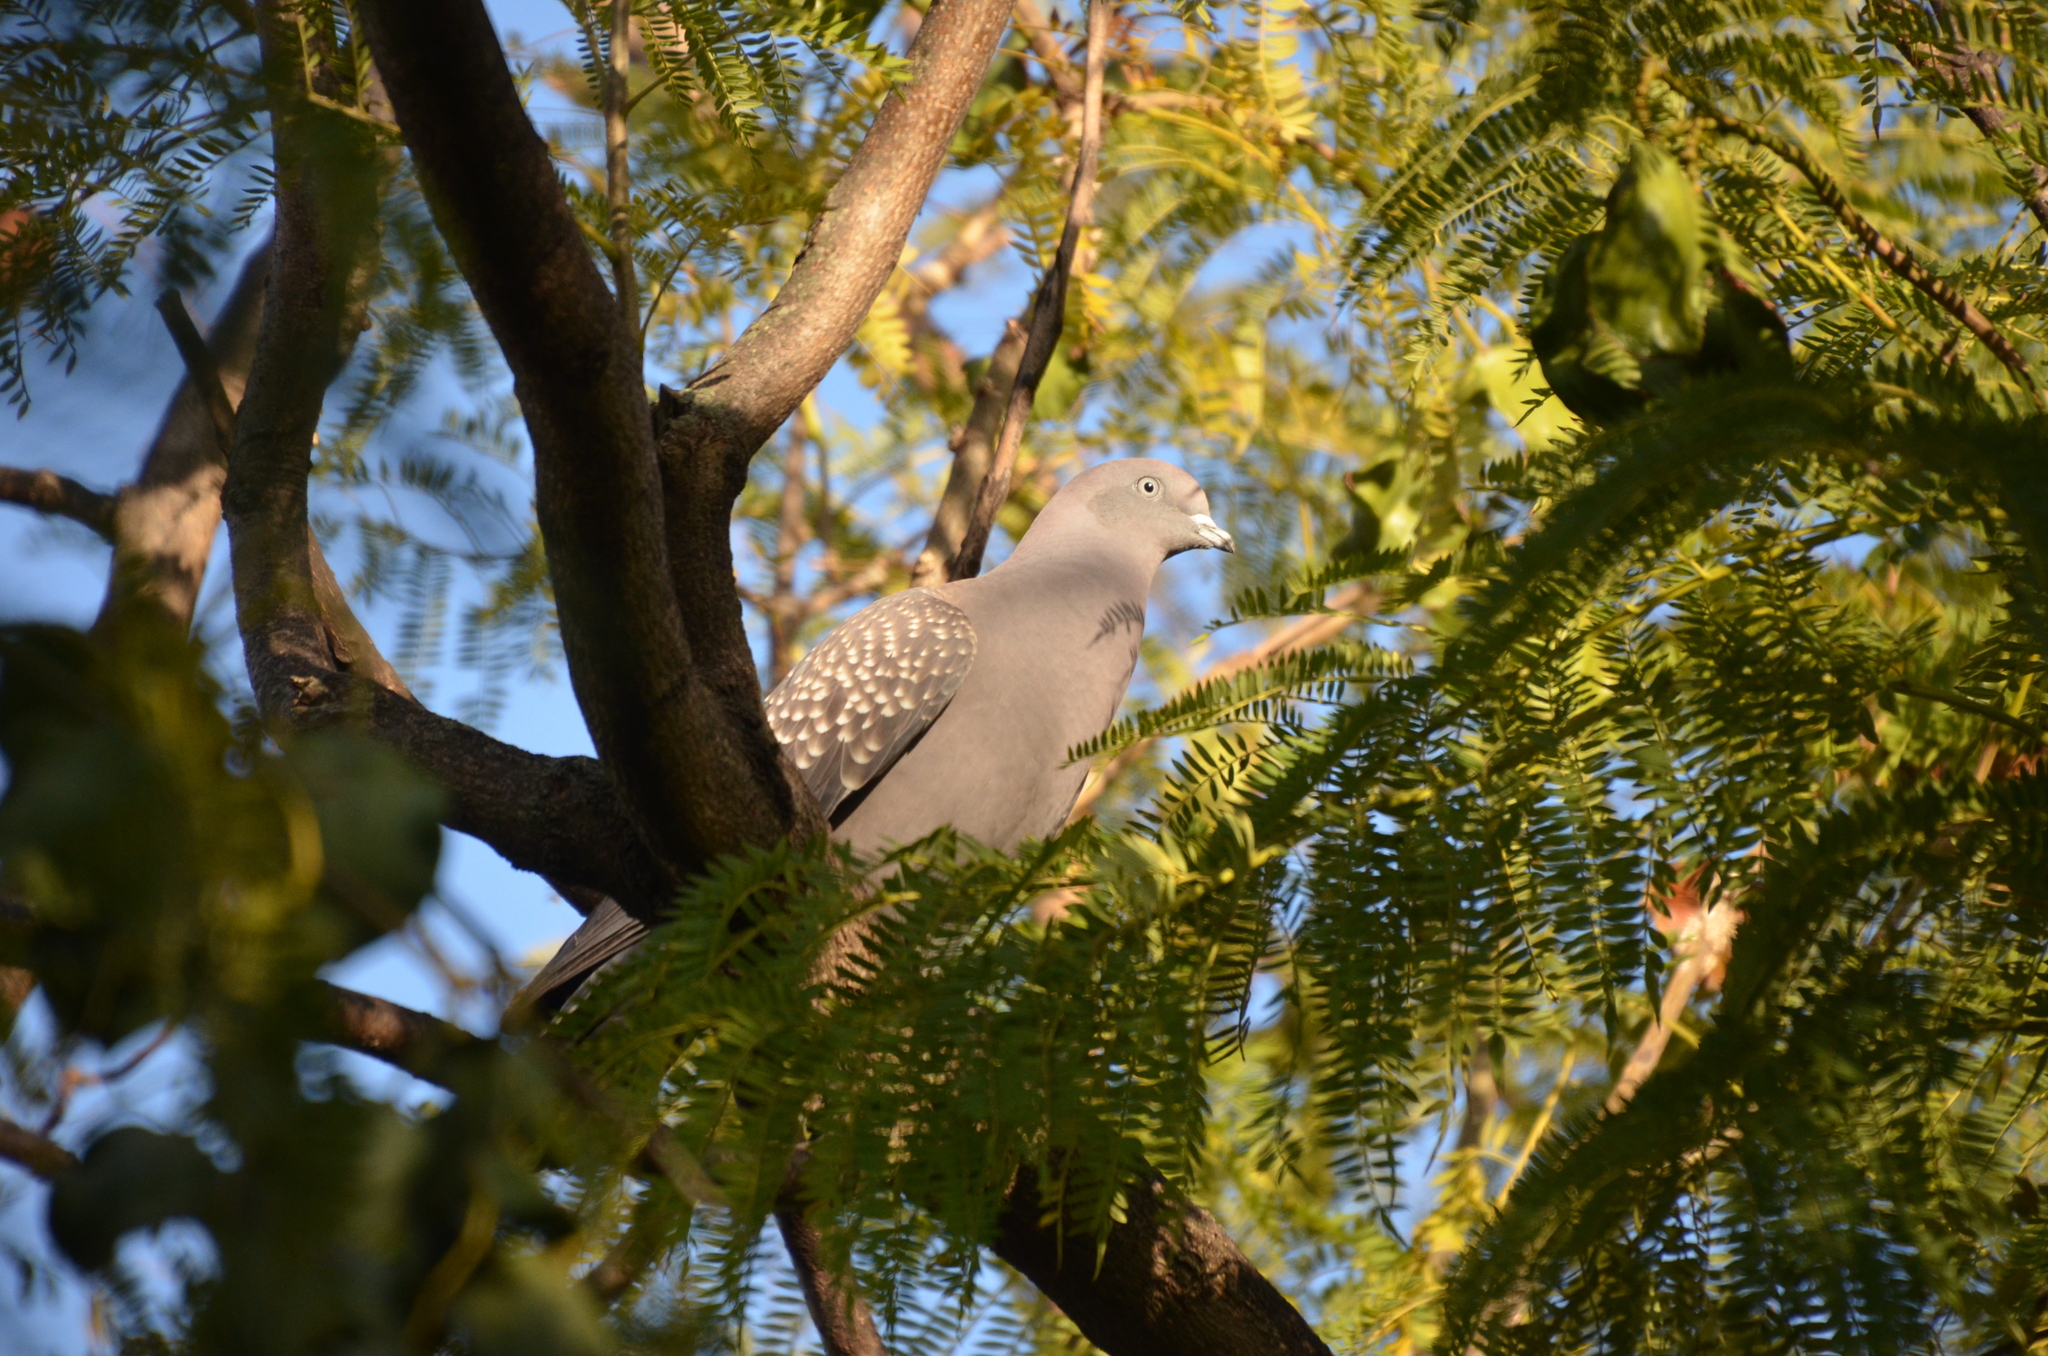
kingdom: Animalia
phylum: Chordata
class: Aves
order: Columbiformes
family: Columbidae
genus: Patagioenas
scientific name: Patagioenas maculosa
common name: Spot-winged pigeon
